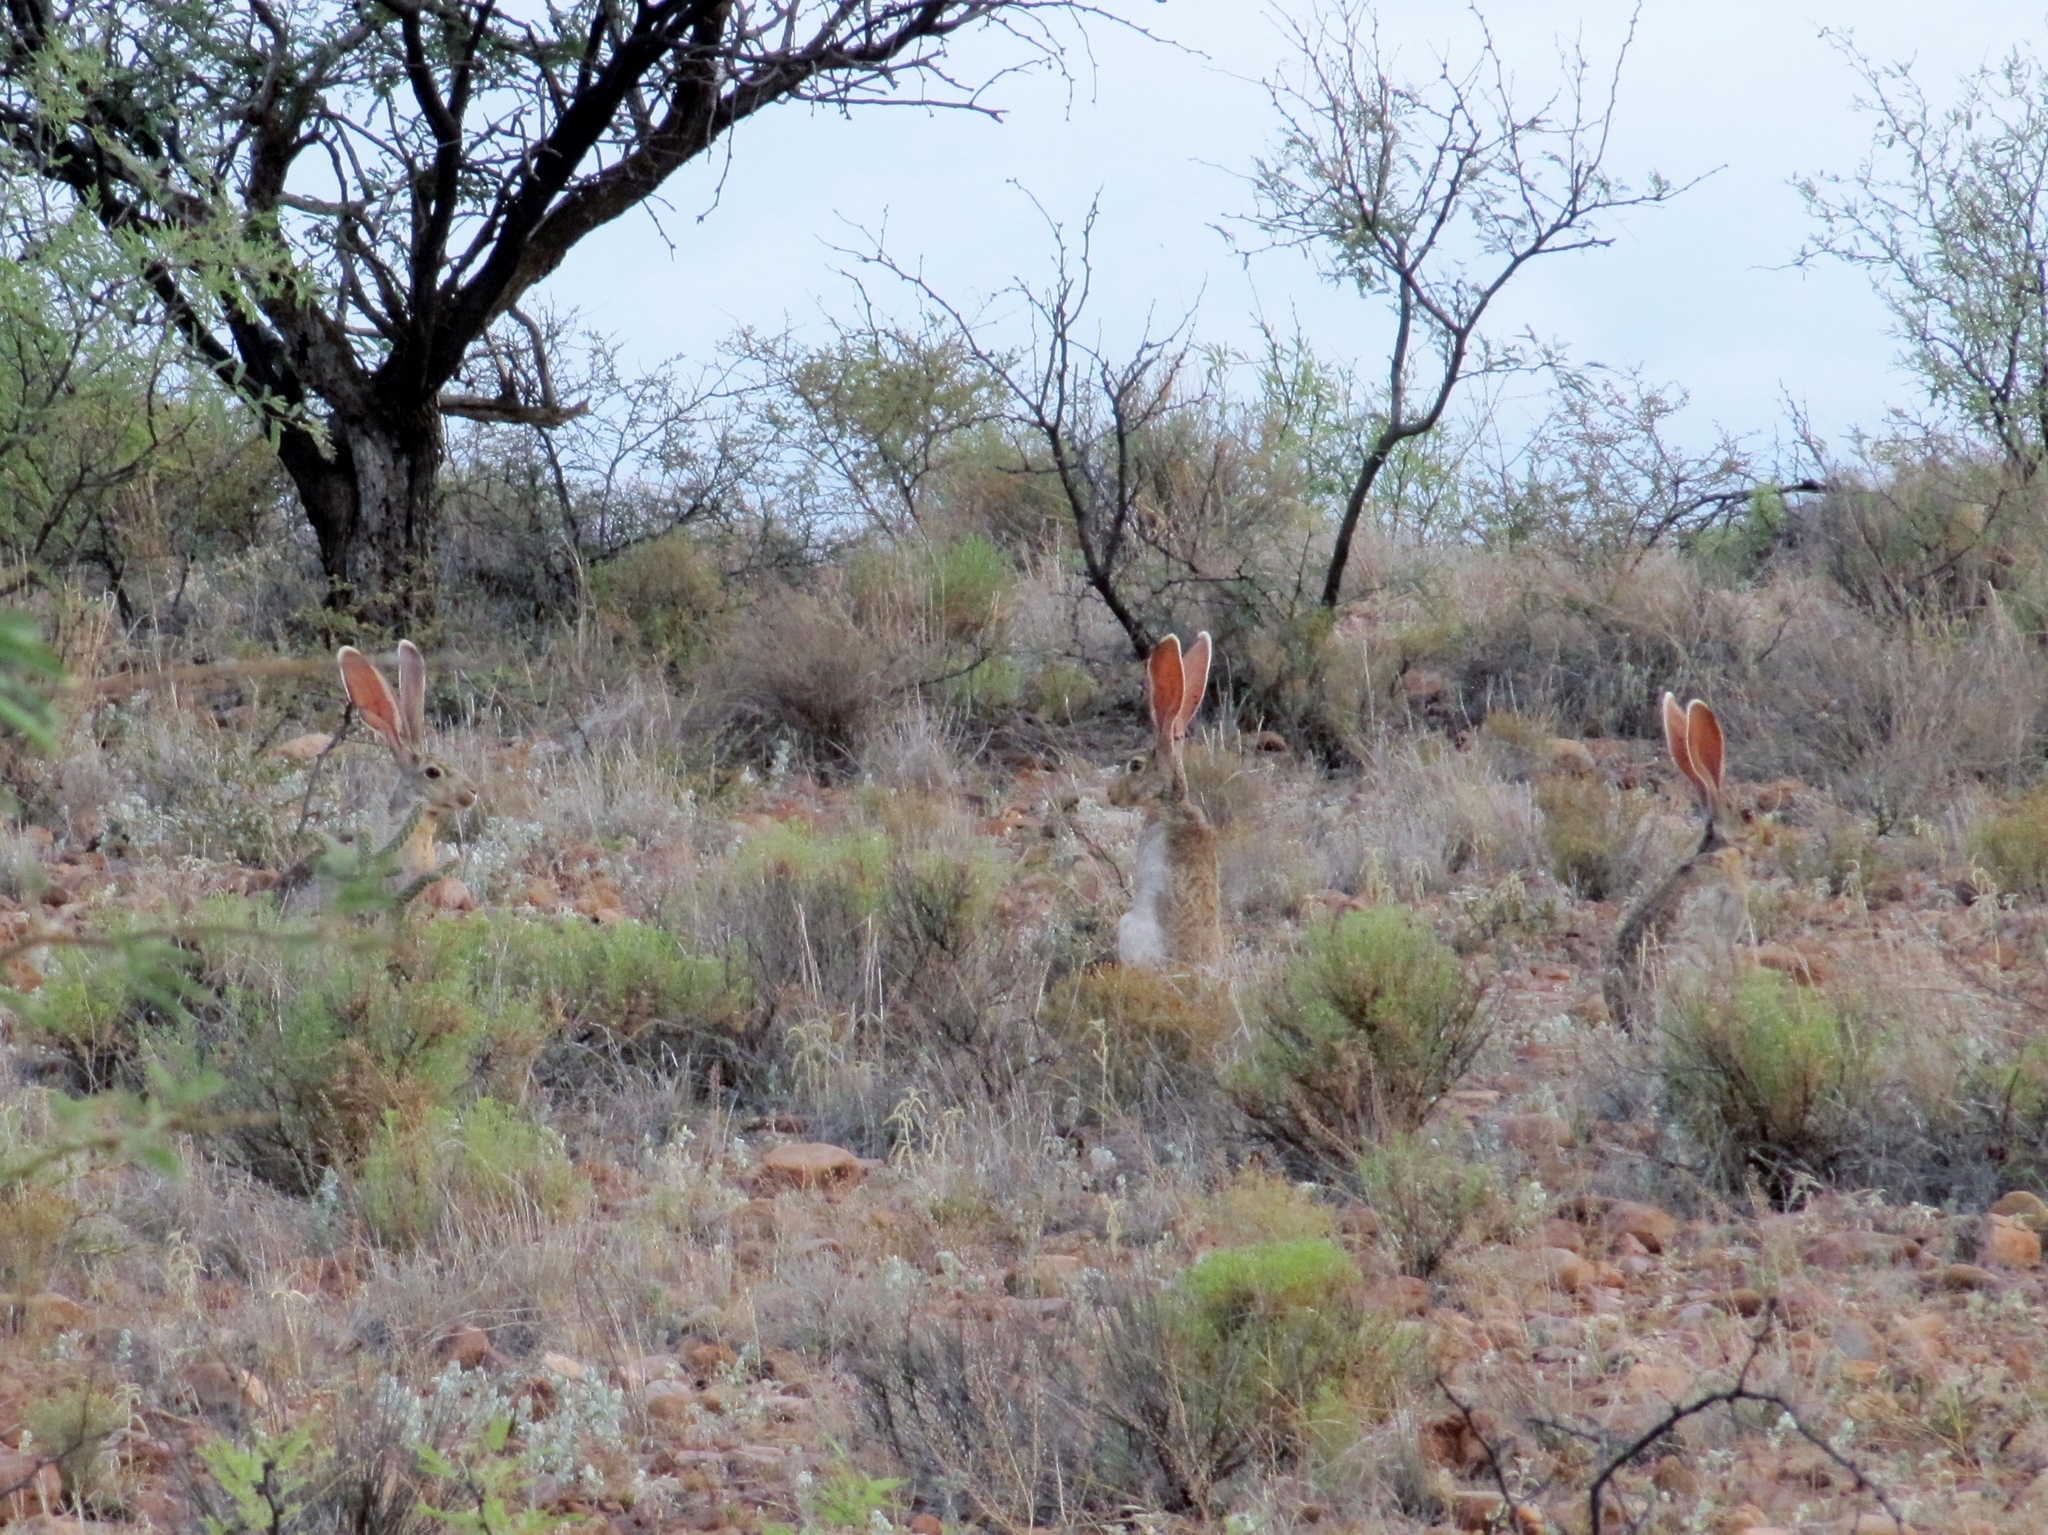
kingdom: Animalia
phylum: Chordata
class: Mammalia
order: Lagomorpha
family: Leporidae
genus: Lepus
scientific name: Lepus californicus
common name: Black-tailed jackrabbit
